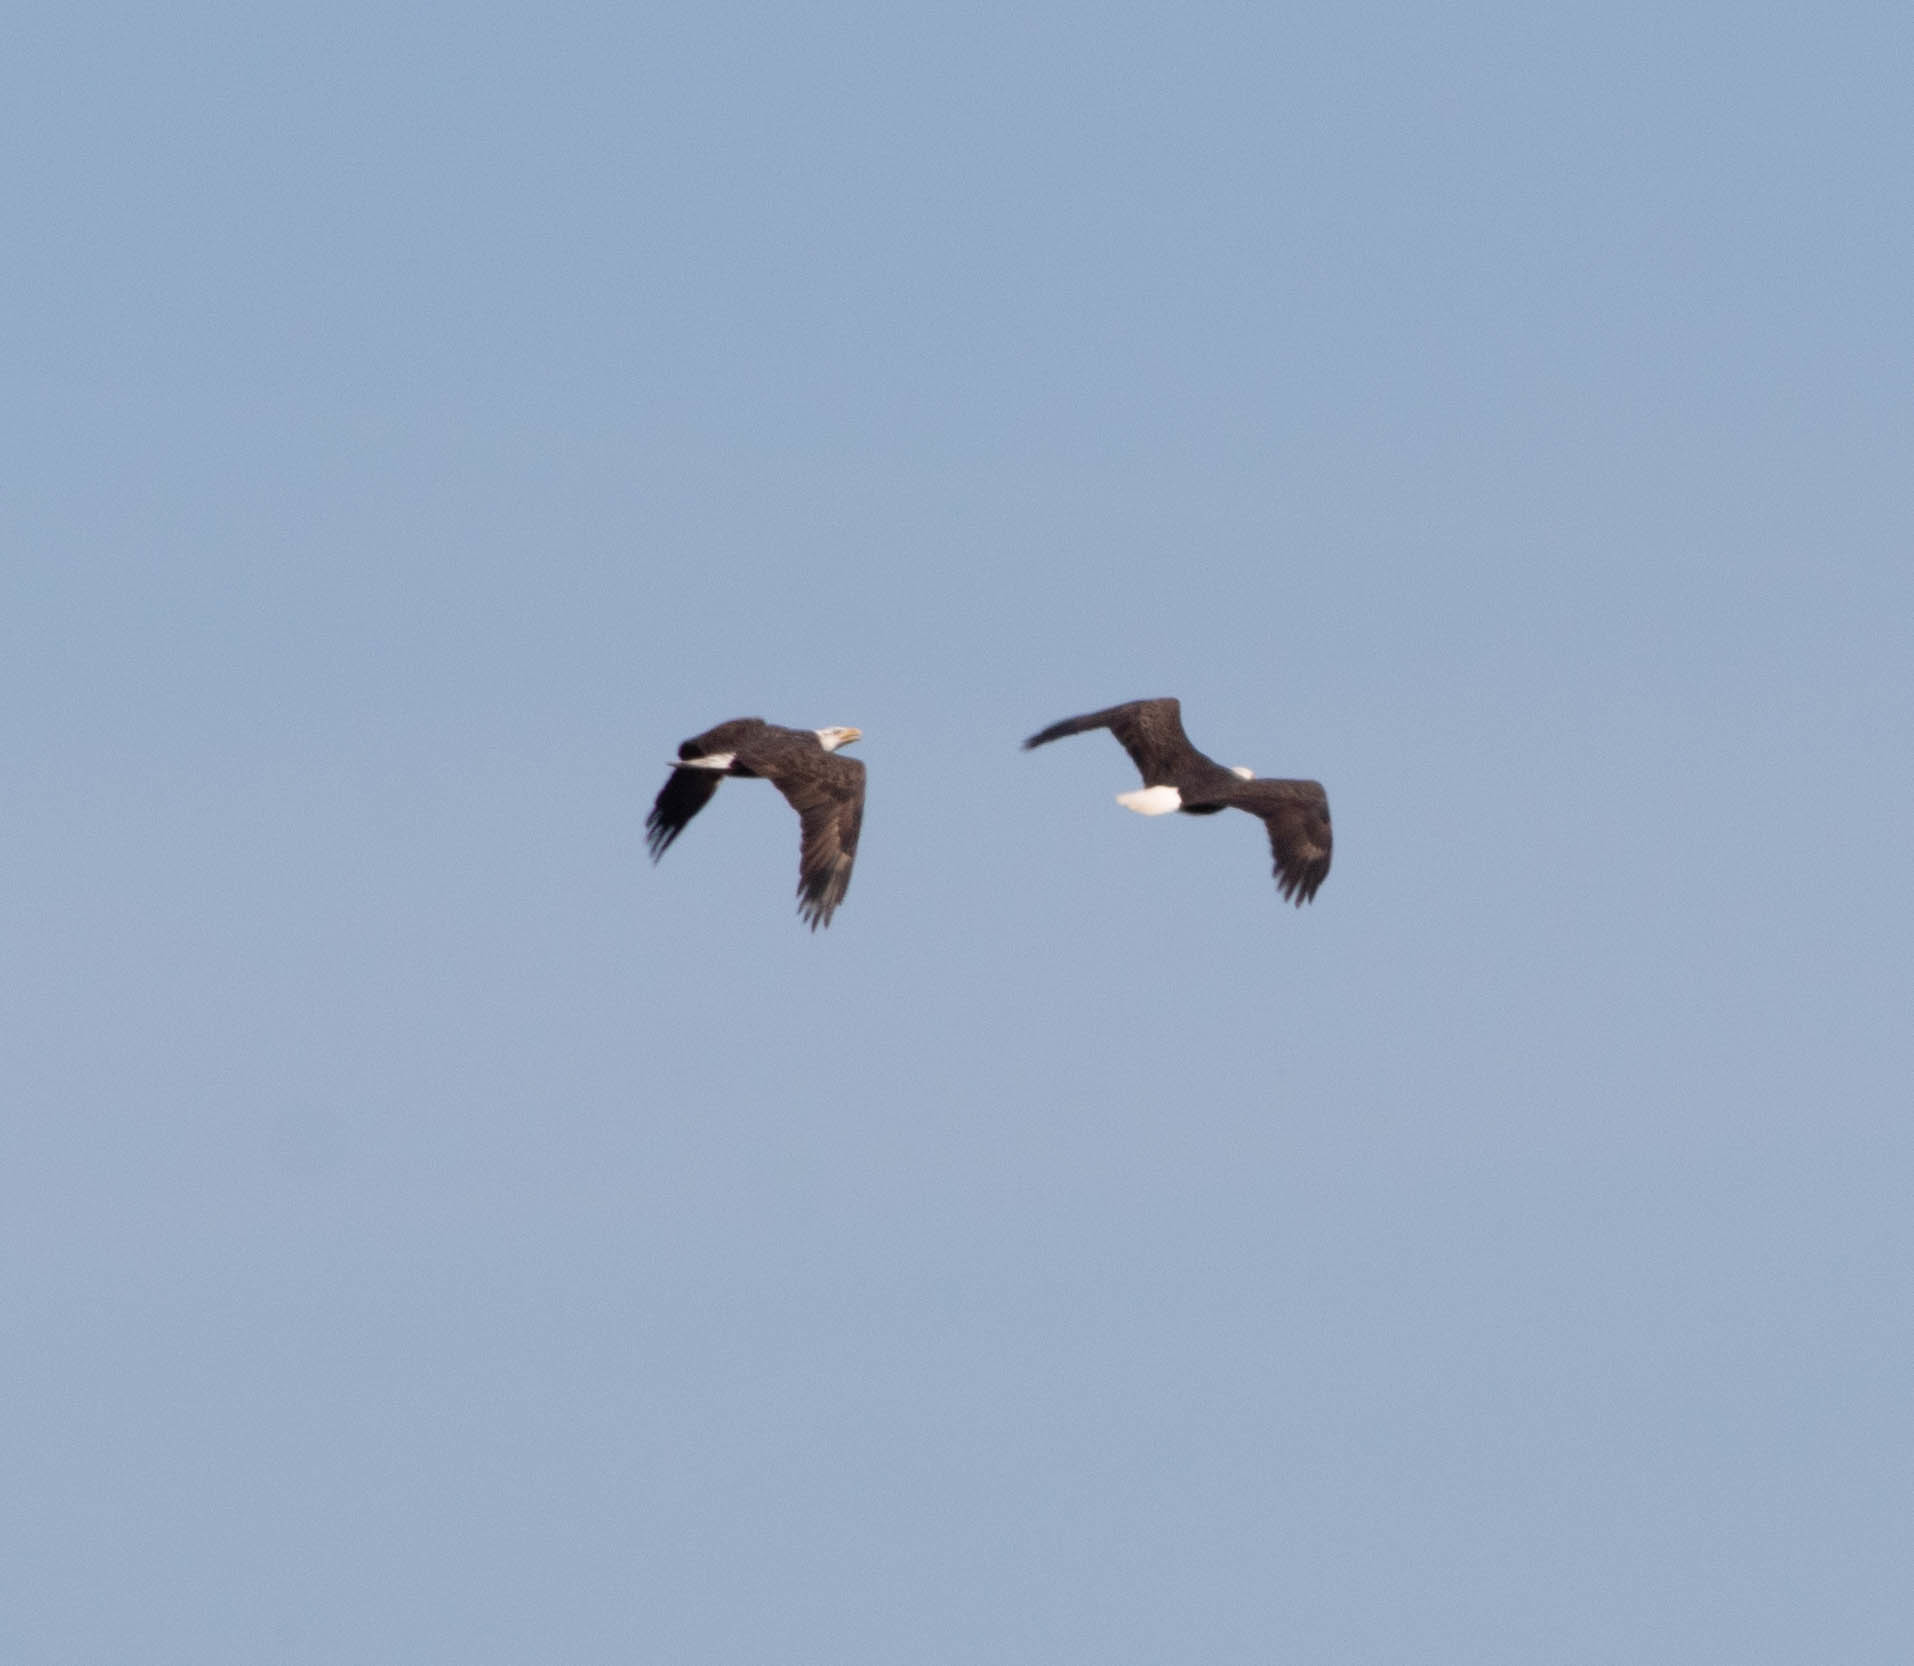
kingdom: Animalia
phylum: Chordata
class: Aves
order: Accipitriformes
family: Accipitridae
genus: Haliaeetus
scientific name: Haliaeetus leucocephalus
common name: Bald eagle
